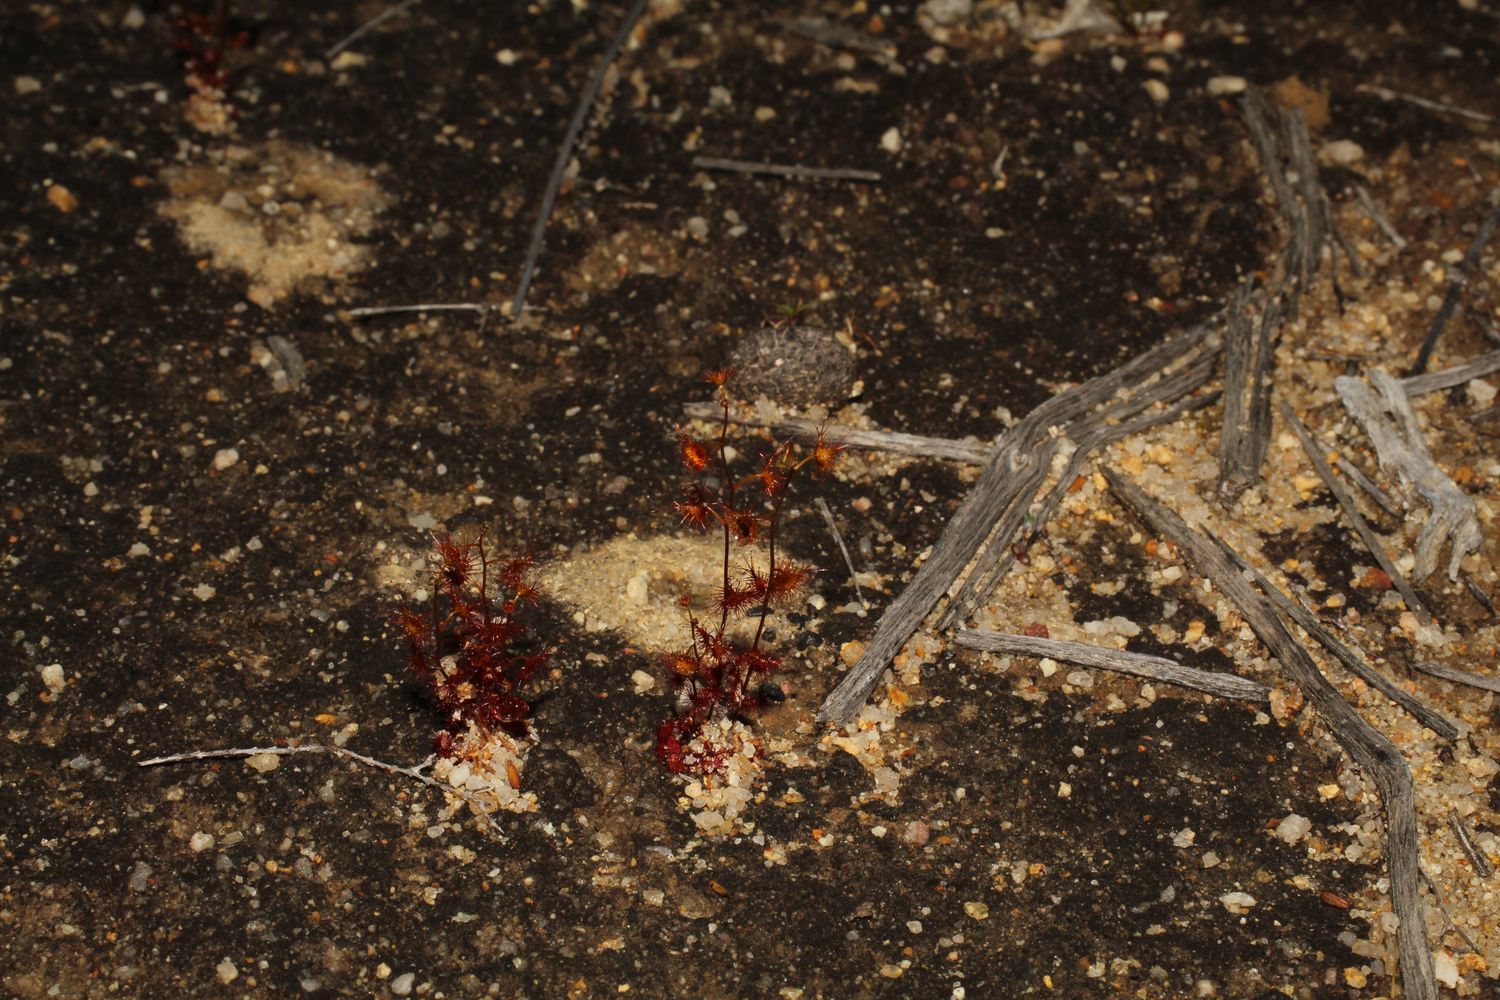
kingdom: Plantae
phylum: Tracheophyta
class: Magnoliopsida
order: Caryophyllales
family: Droseraceae
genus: Drosera
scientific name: Drosera peltata
